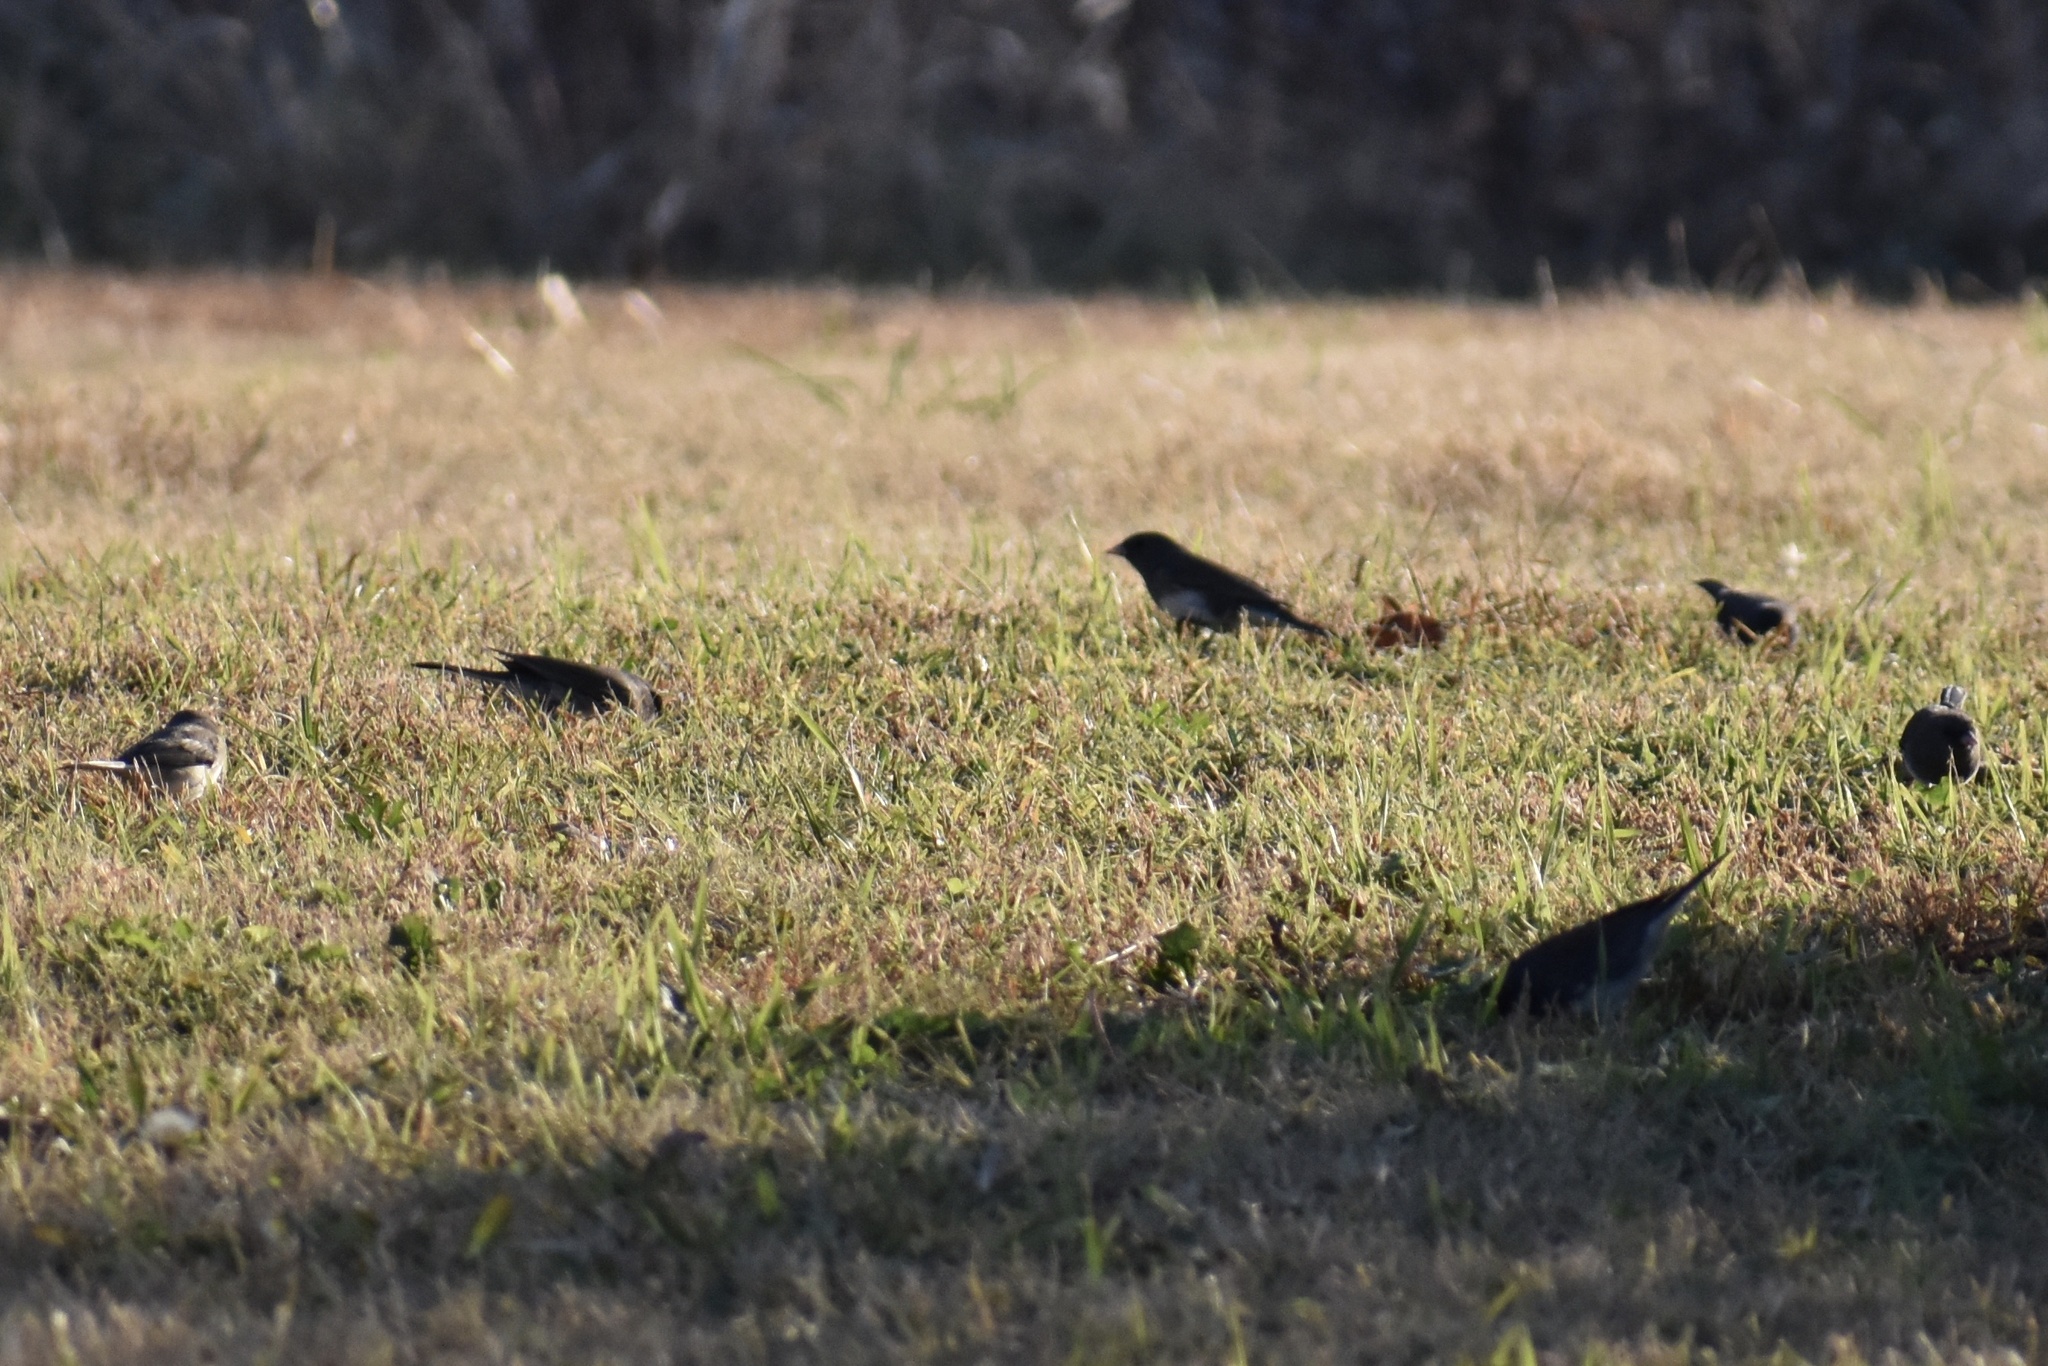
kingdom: Animalia
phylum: Chordata
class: Aves
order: Passeriformes
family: Passerellidae
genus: Junco
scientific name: Junco hyemalis
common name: Dark-eyed junco
